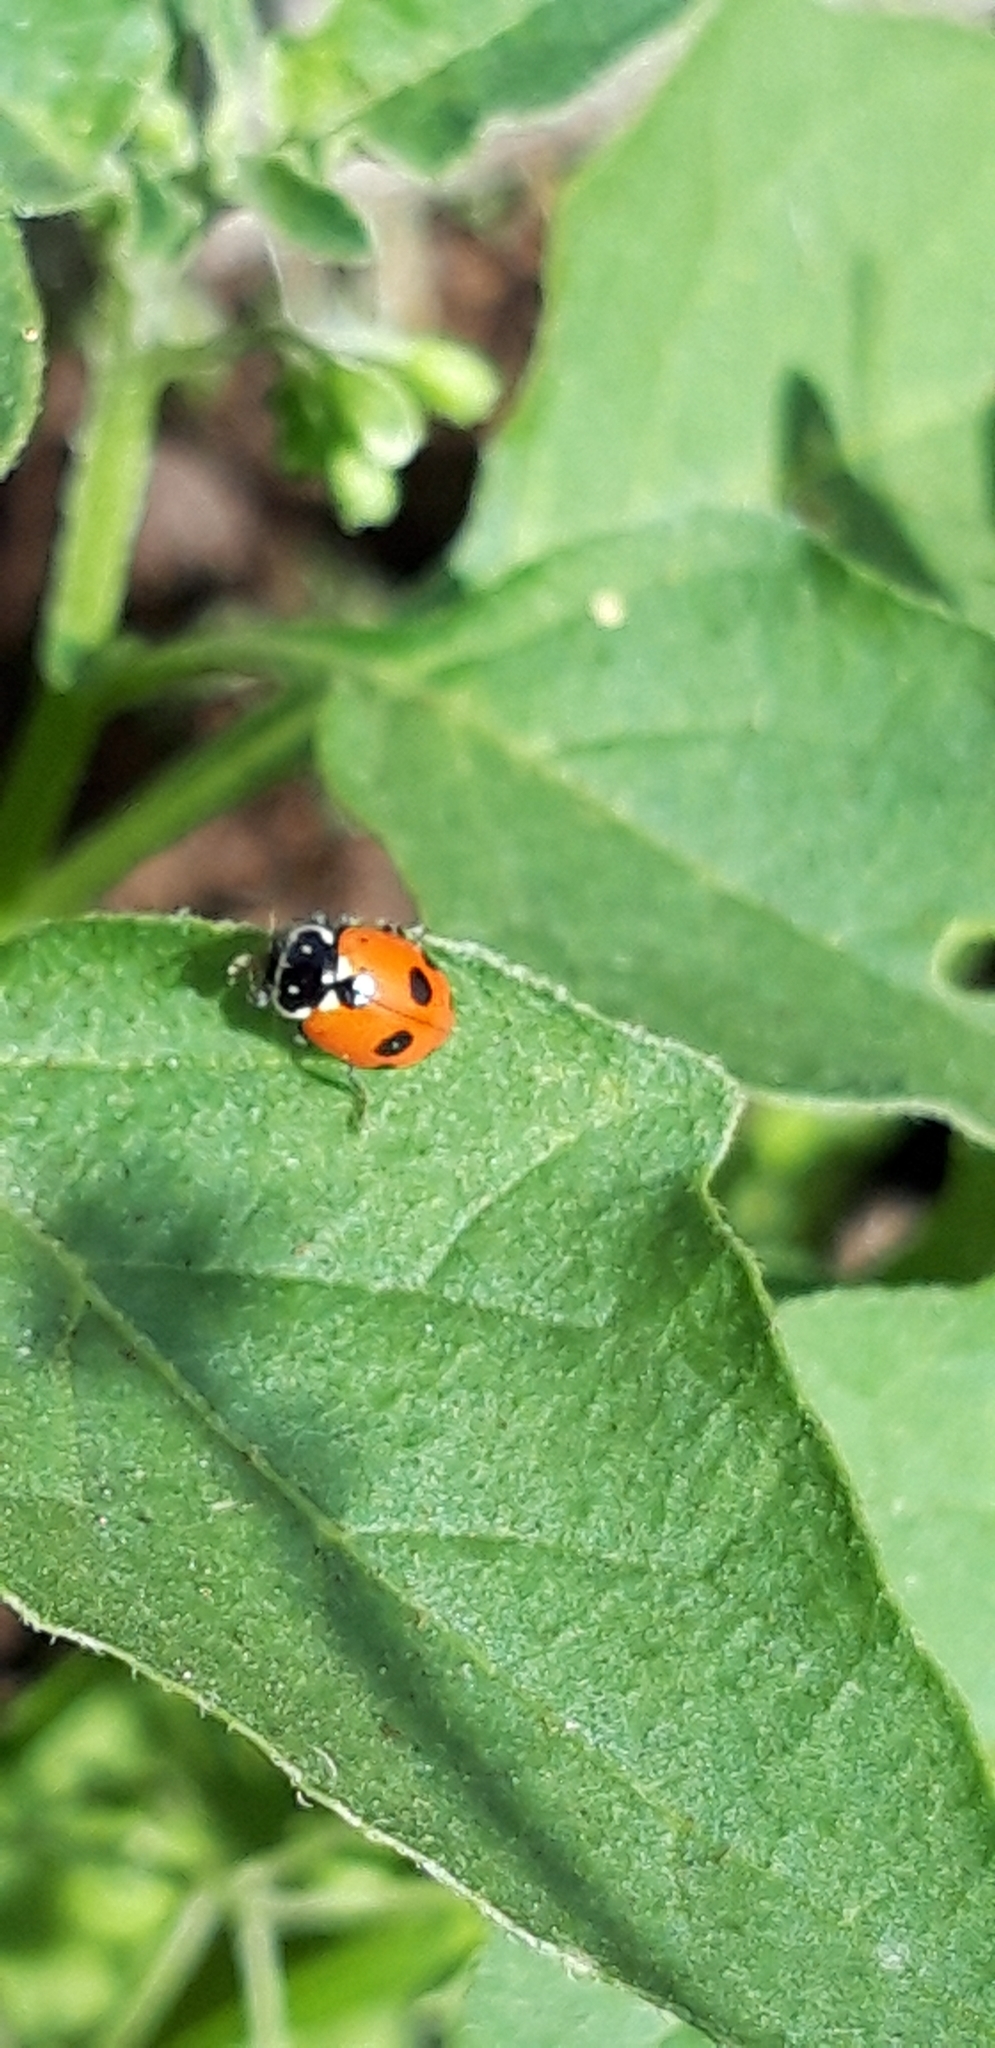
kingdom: Animalia
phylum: Arthropoda
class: Insecta
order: Coleoptera
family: Coccinellidae
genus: Hippodamia
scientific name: Hippodamia variegata
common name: Ladybird beetle
